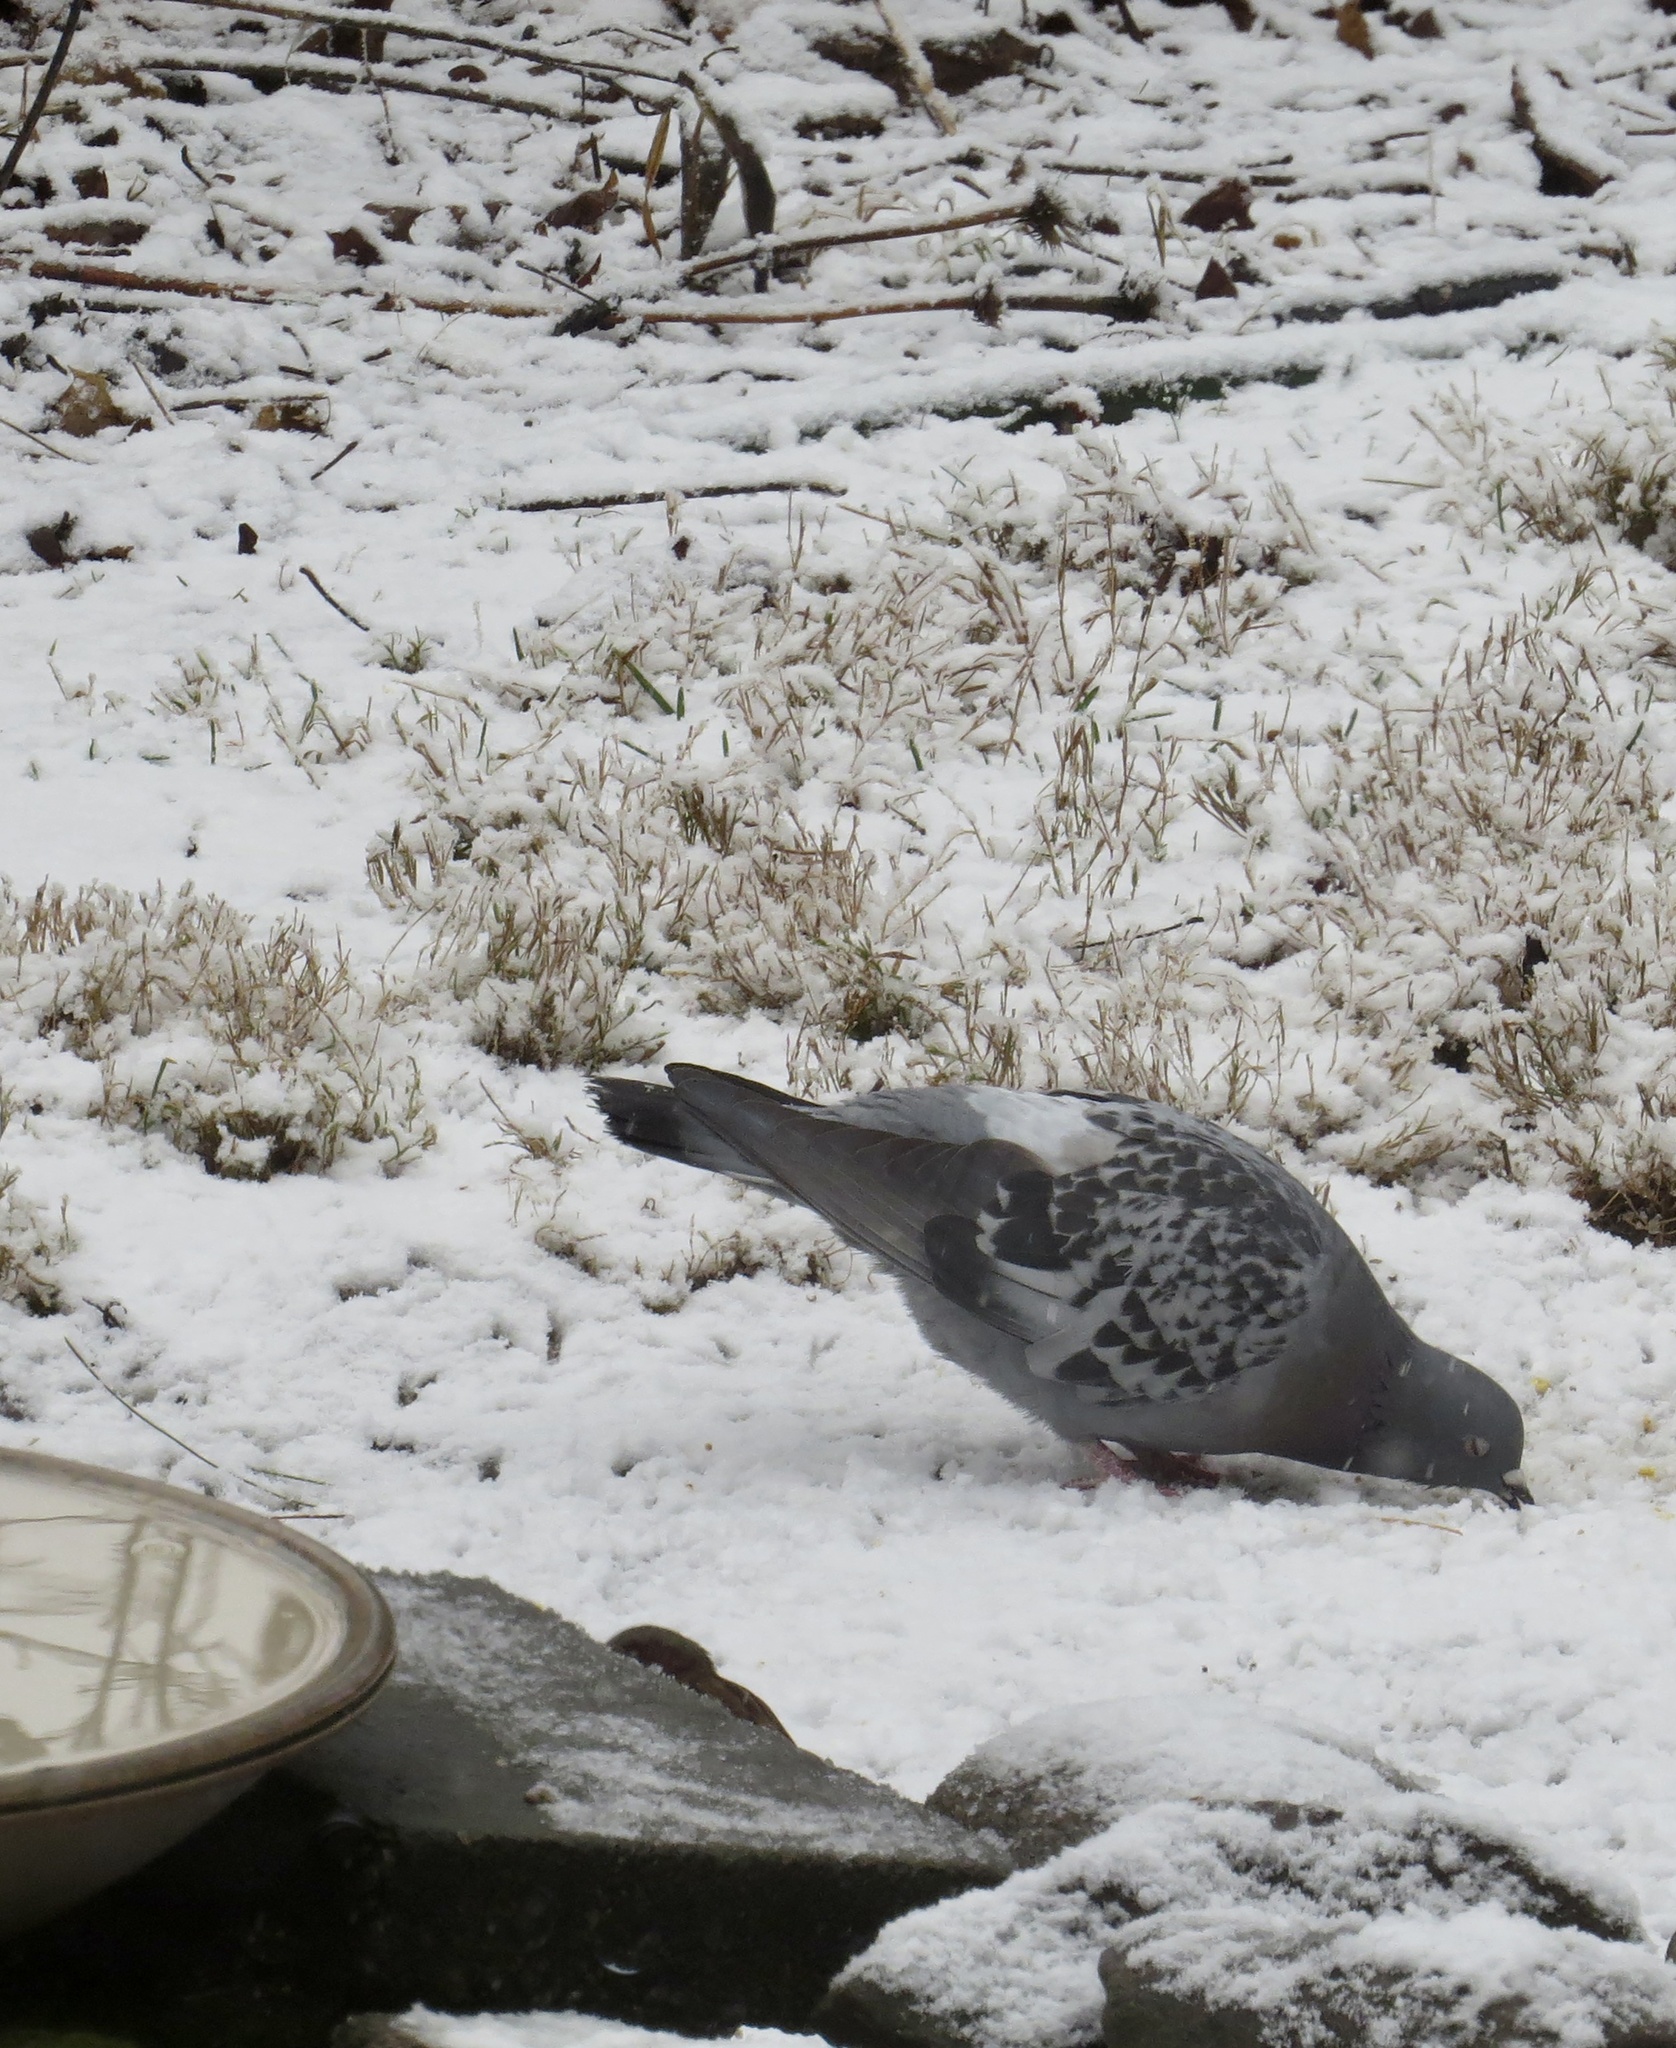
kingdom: Animalia
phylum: Chordata
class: Aves
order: Columbiformes
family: Columbidae
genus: Columba
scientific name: Columba livia
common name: Rock pigeon
